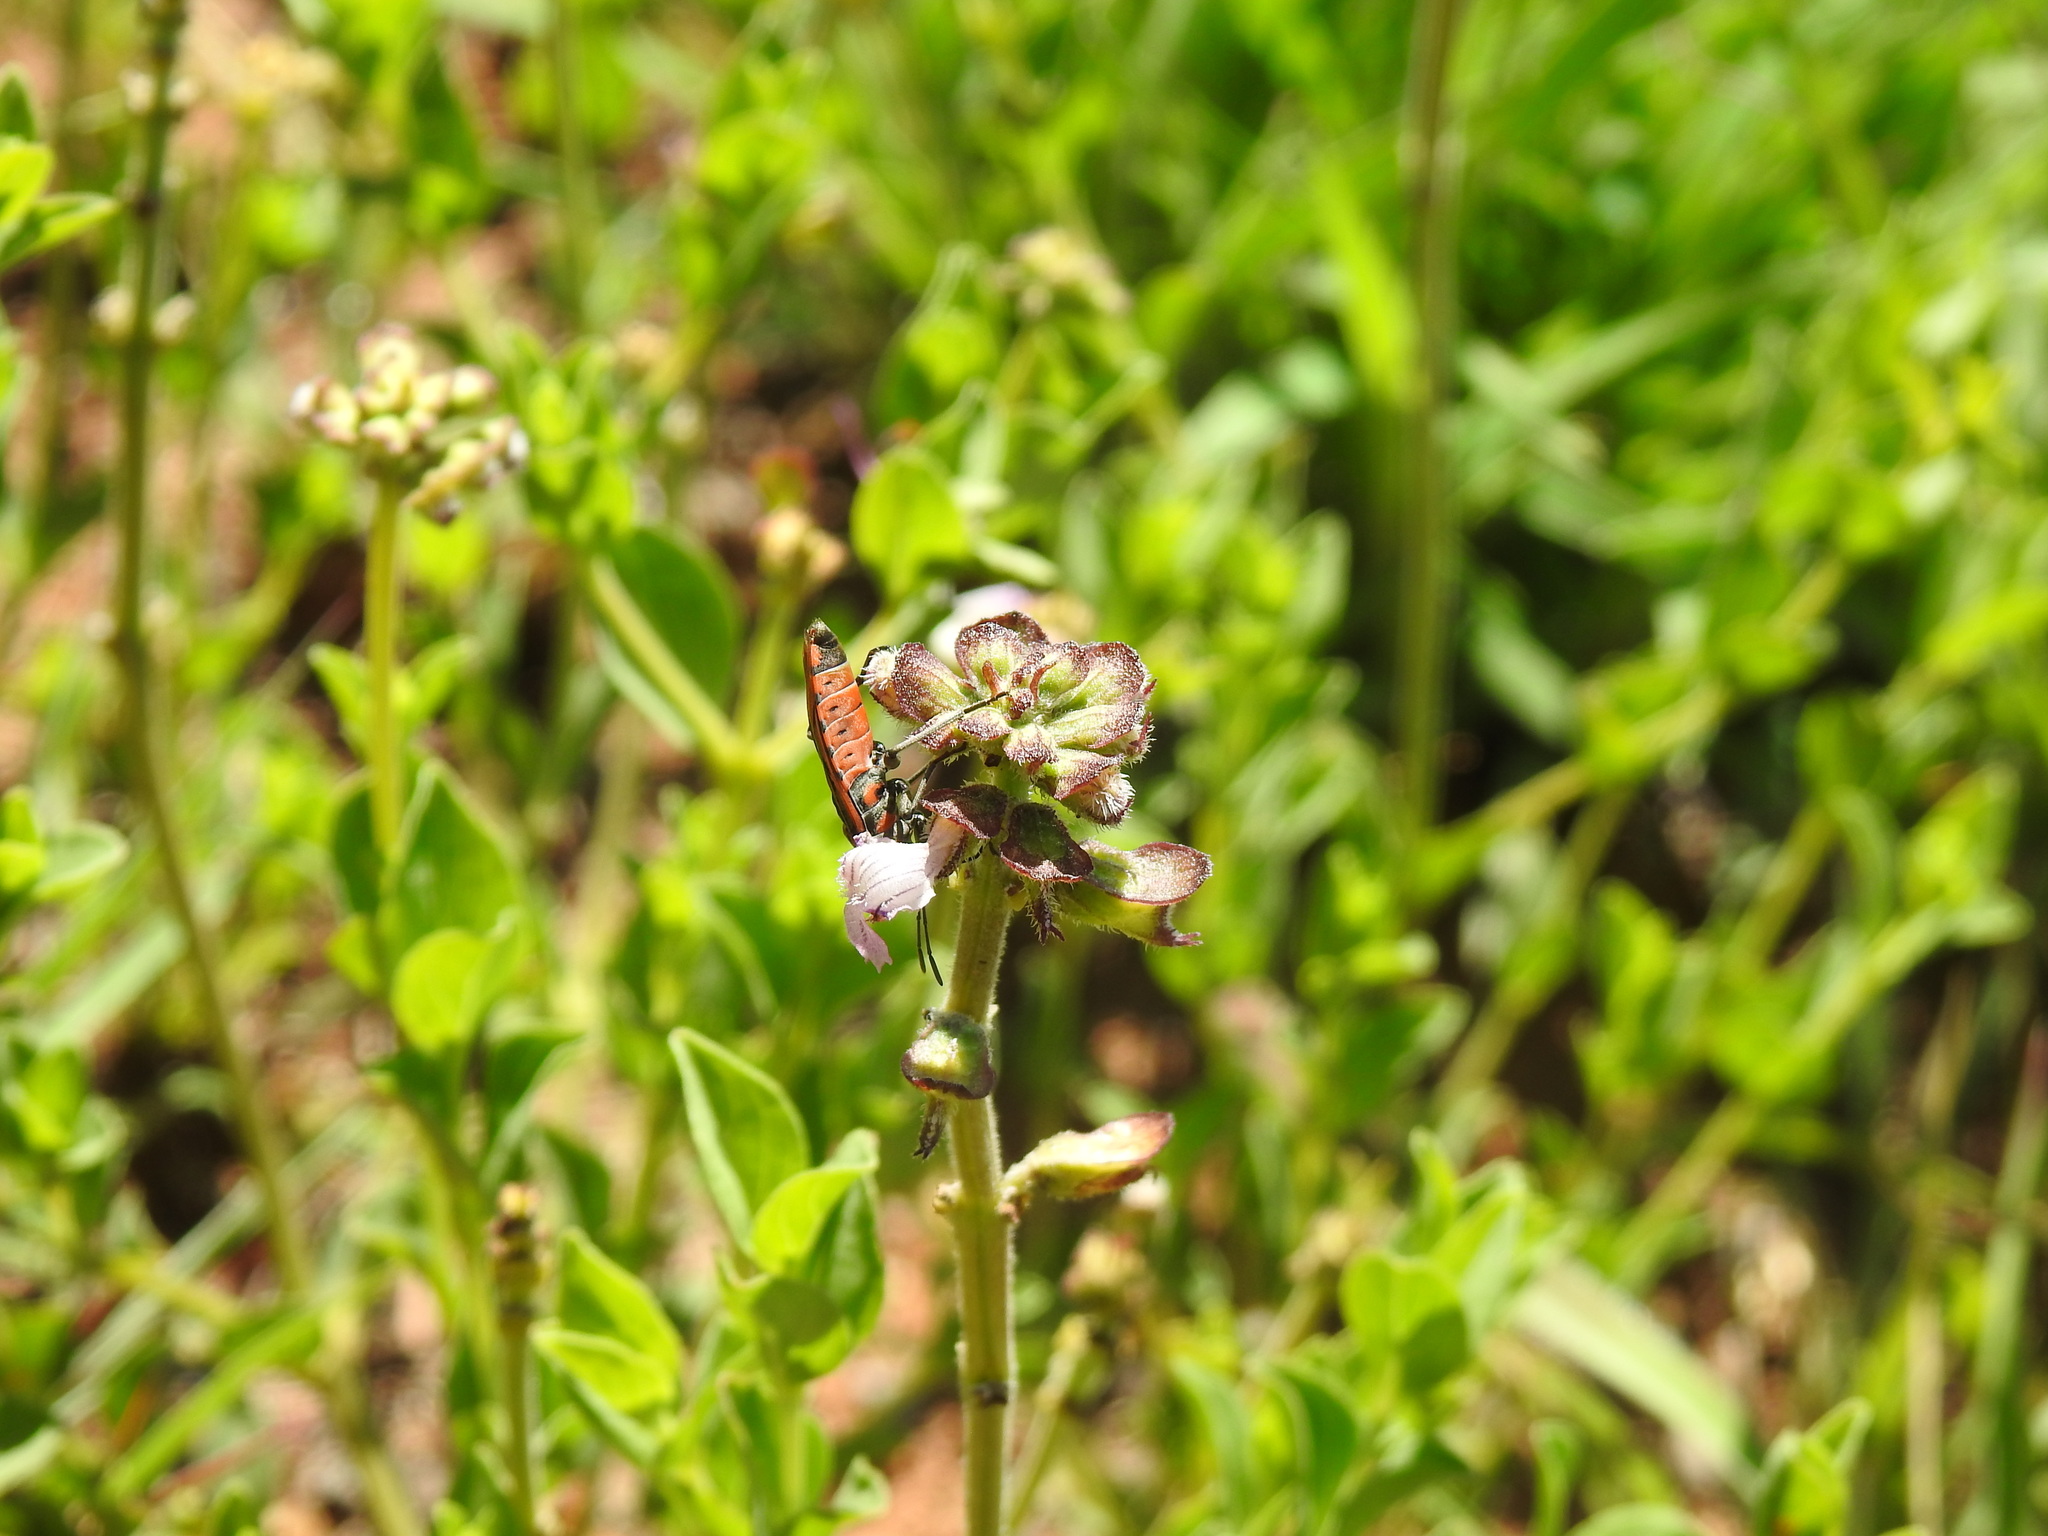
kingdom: Plantae
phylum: Tracheophyta
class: Magnoliopsida
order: Lamiales
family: Lamiaceae
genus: Ocimum
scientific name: Ocimum obovatum
